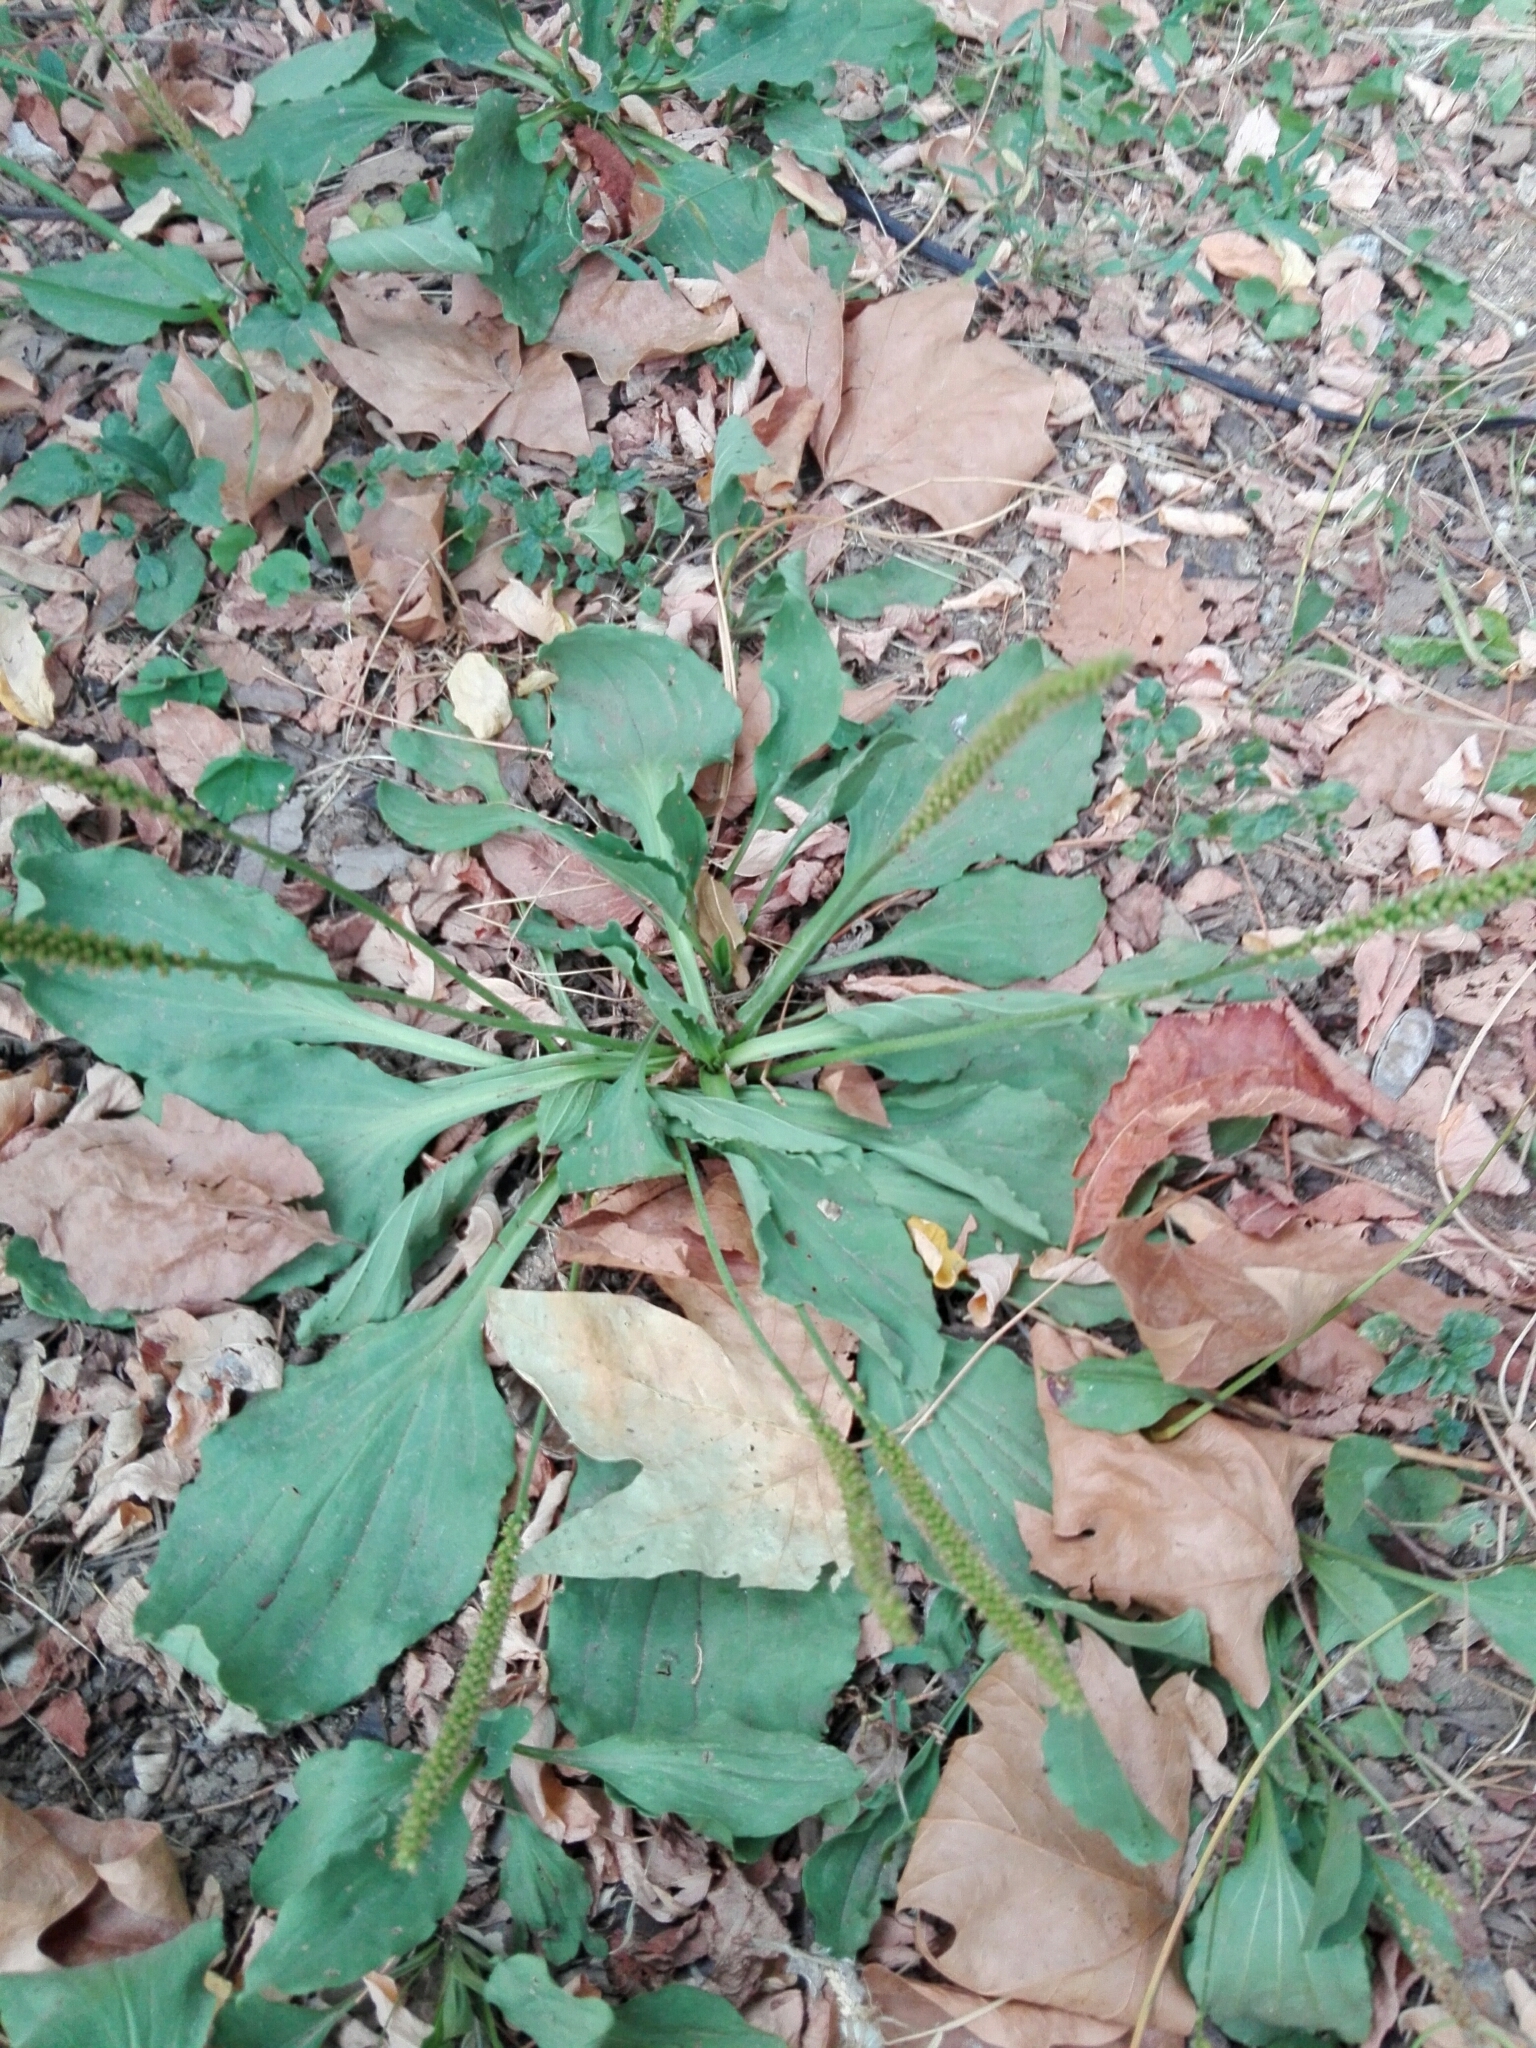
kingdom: Plantae
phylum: Tracheophyta
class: Magnoliopsida
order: Lamiales
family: Plantaginaceae
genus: Plantago
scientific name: Plantago major
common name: Common plantain
